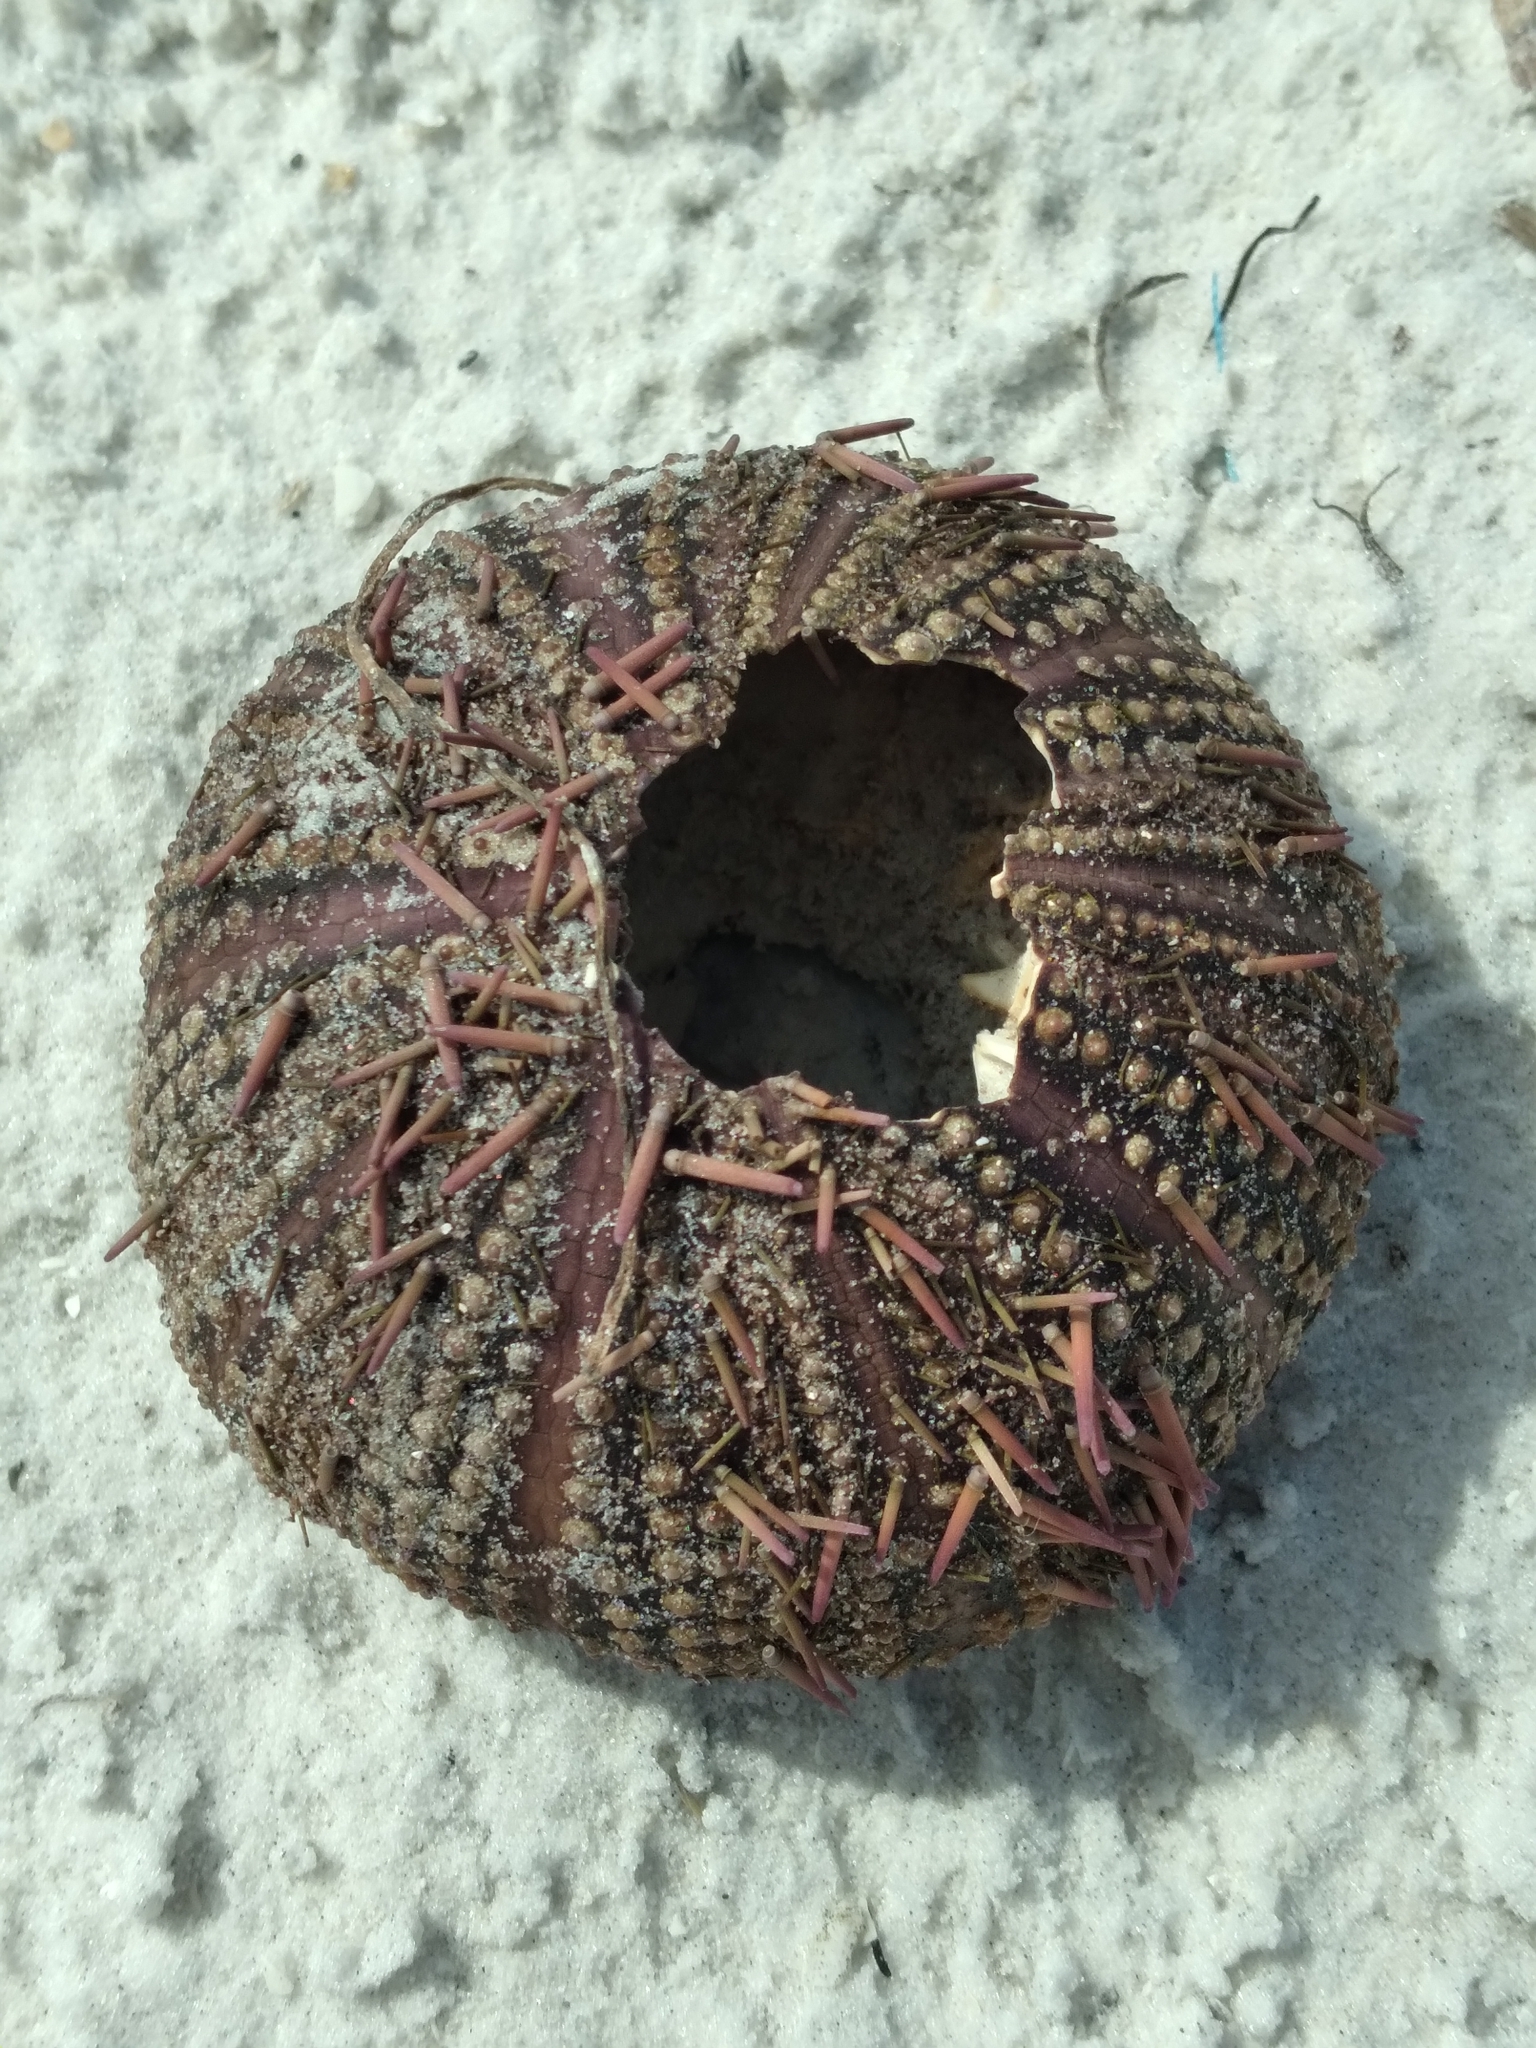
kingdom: Animalia
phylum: Echinodermata
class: Echinoidea
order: Camarodonta
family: Toxopneustidae
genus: Lytechinus
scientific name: Lytechinus variegatus
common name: Variegated urchin
